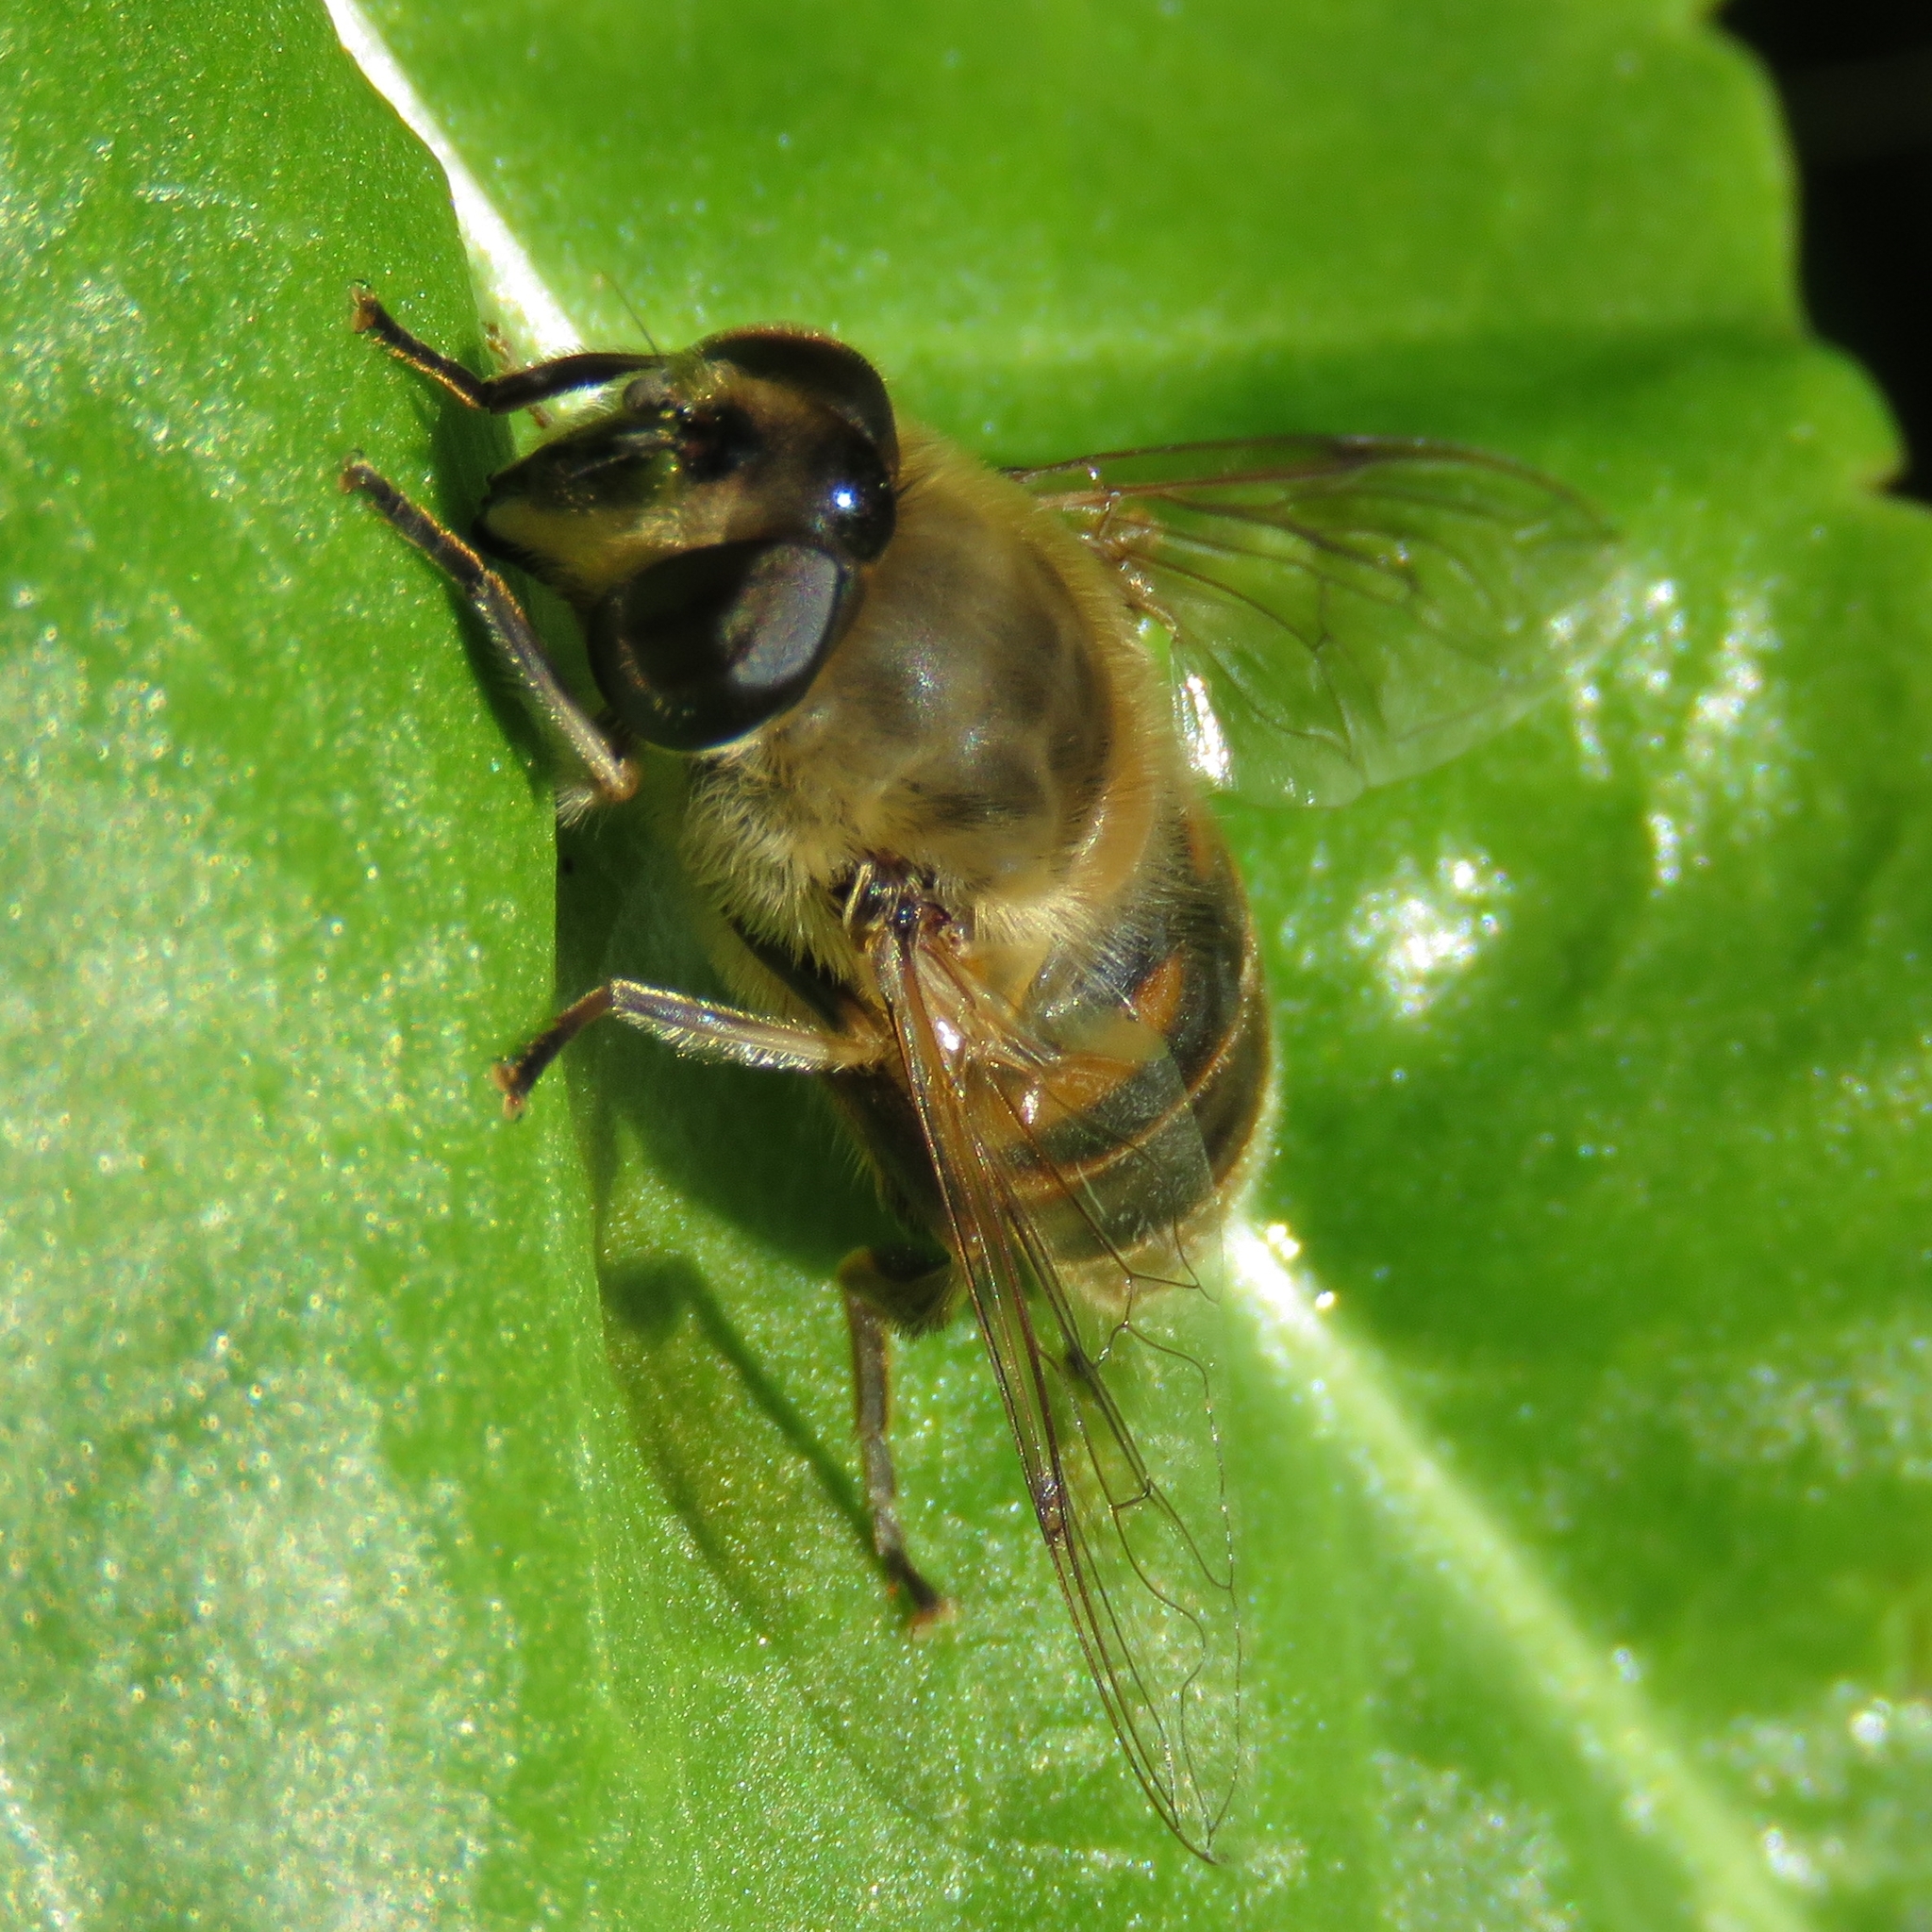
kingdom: Animalia
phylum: Arthropoda
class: Insecta
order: Diptera
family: Syrphidae
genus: Eristalis
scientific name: Eristalis tenax
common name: Drone fly
